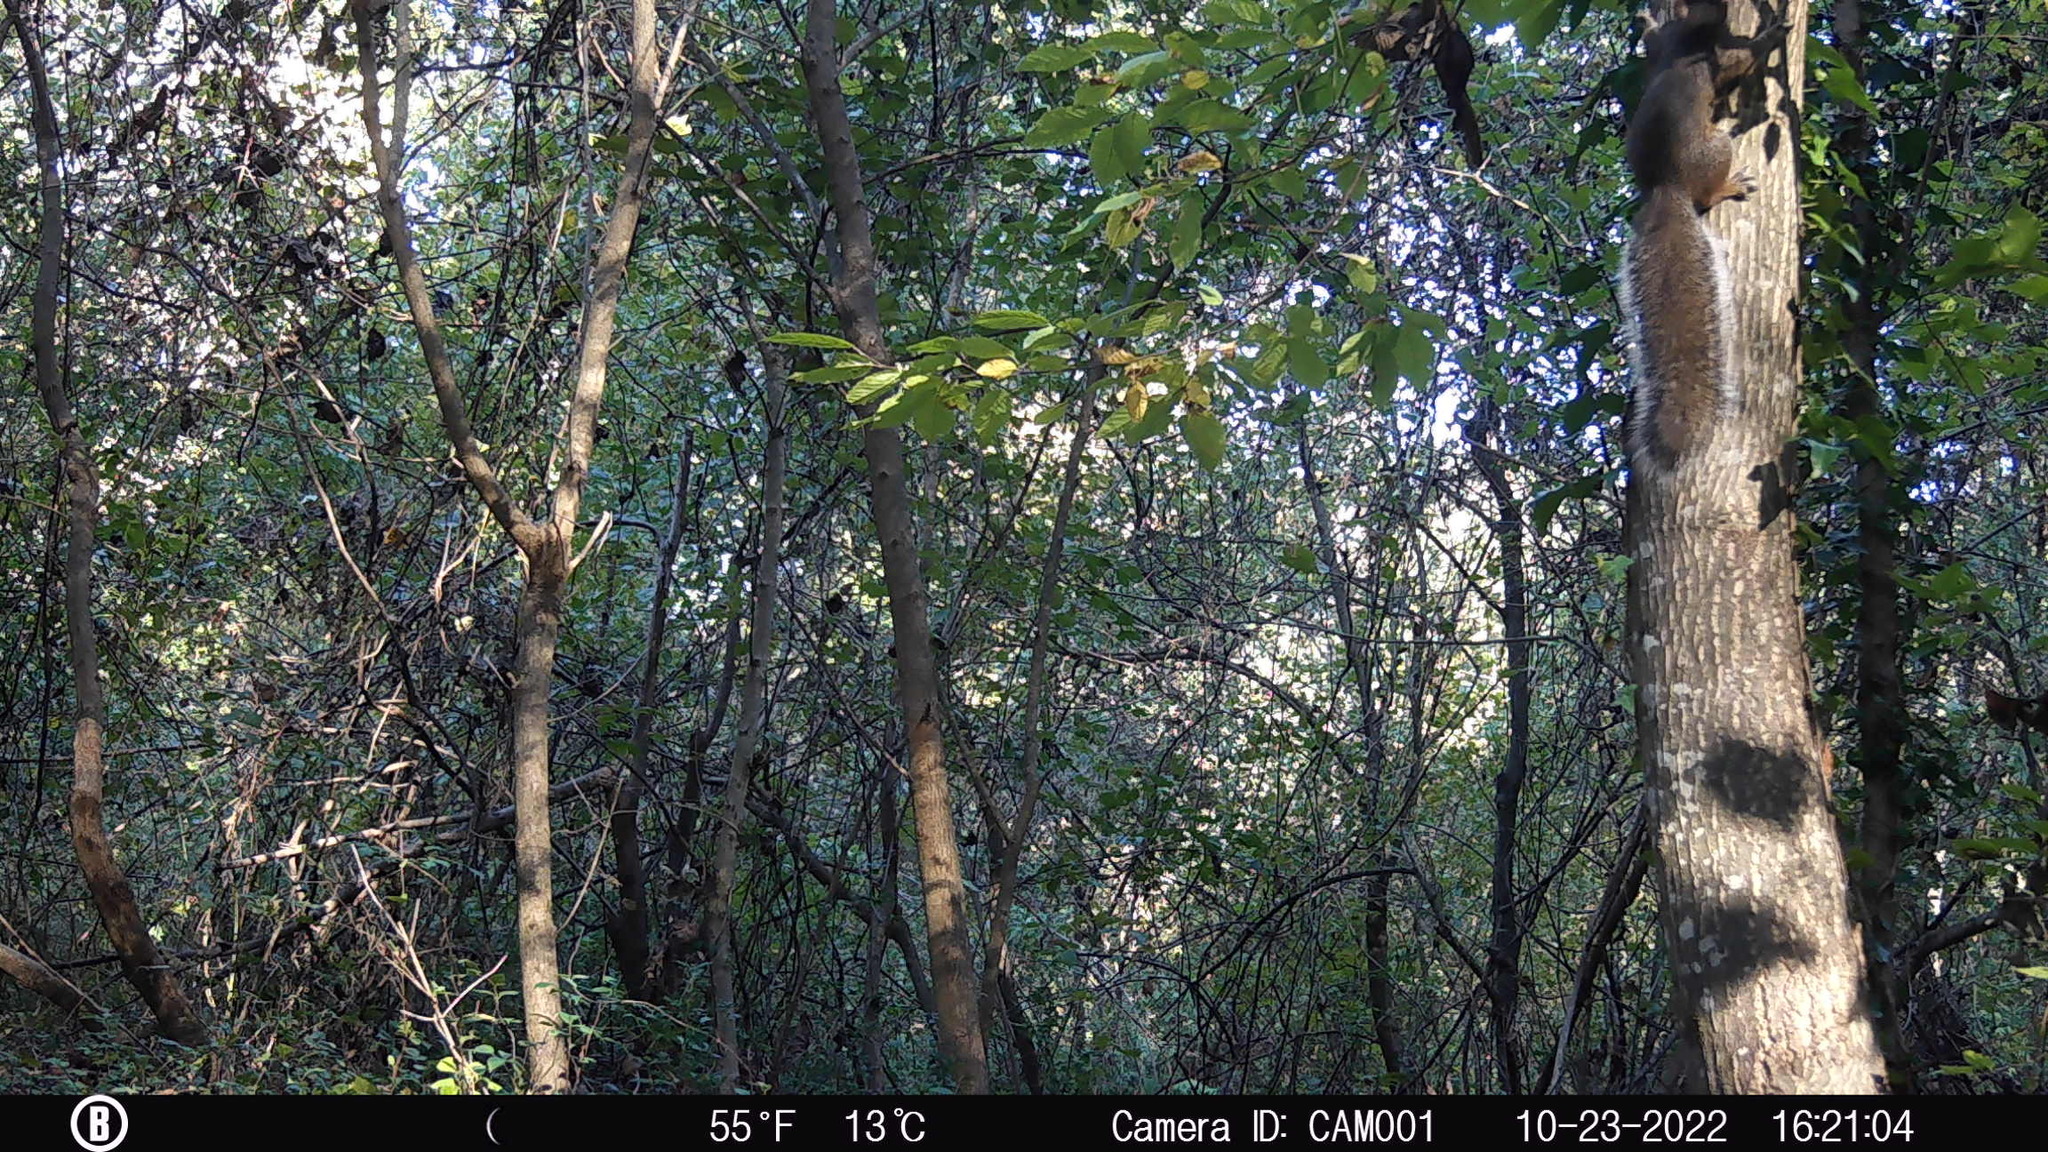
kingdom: Animalia
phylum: Chordata
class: Mammalia
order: Rodentia
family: Sciuridae
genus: Sciurus
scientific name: Sciurus carolinensis
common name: Eastern gray squirrel
